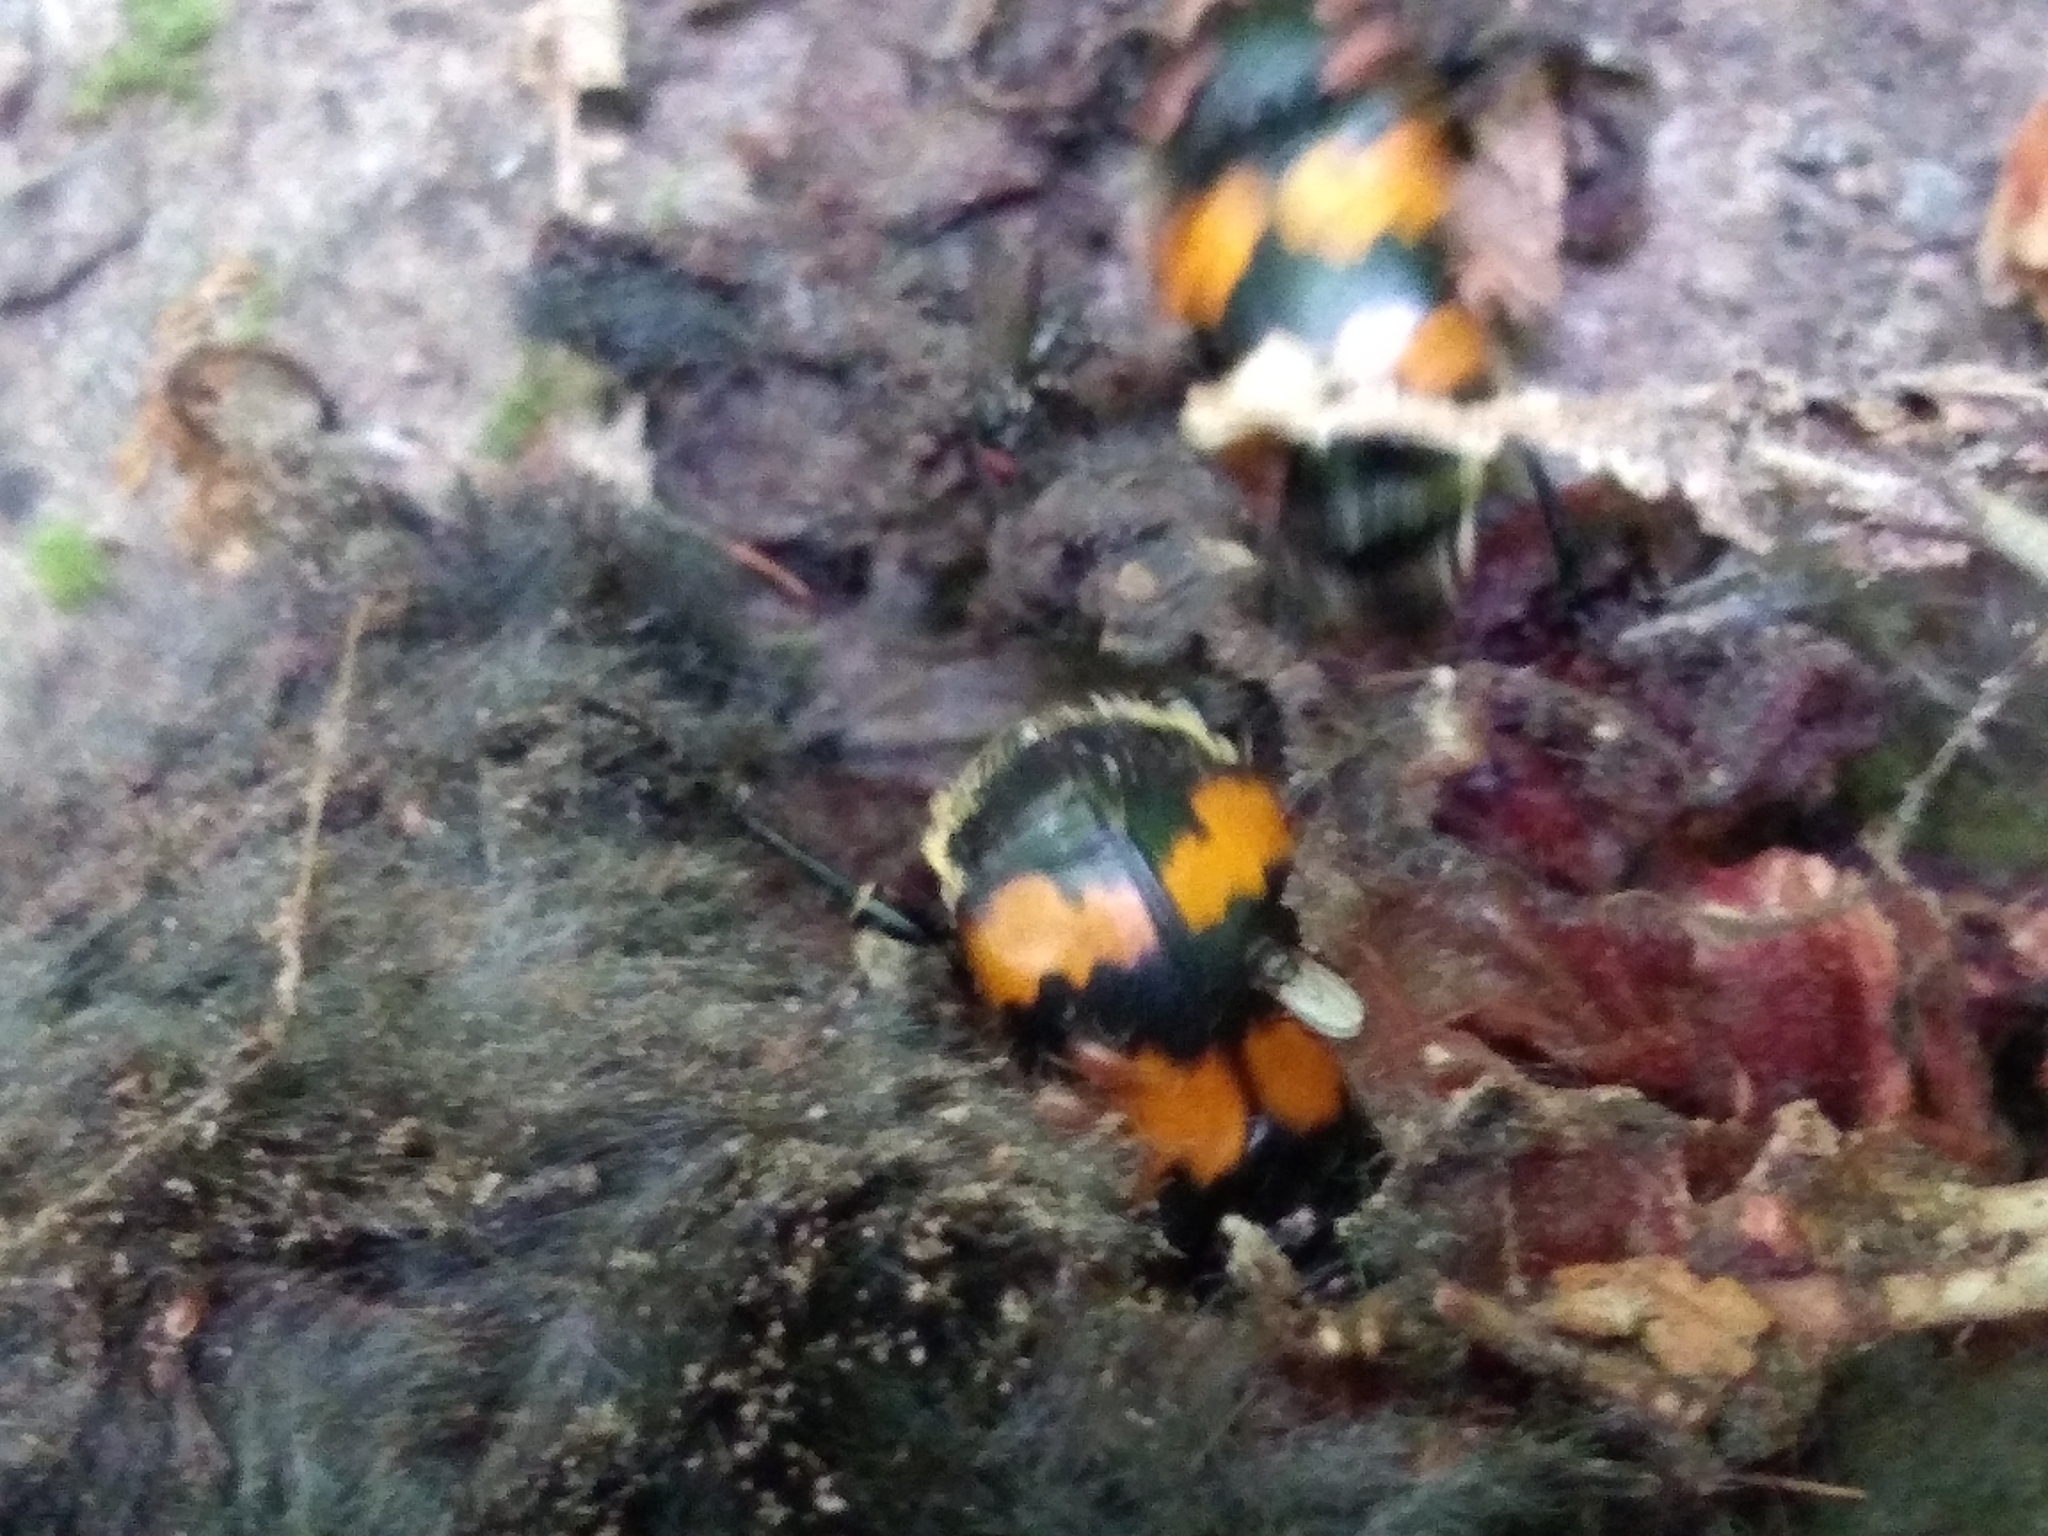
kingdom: Animalia
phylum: Arthropoda
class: Insecta
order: Coleoptera
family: Staphylinidae
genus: Nicrophorus
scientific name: Nicrophorus vespillo
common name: Common burying beetle
